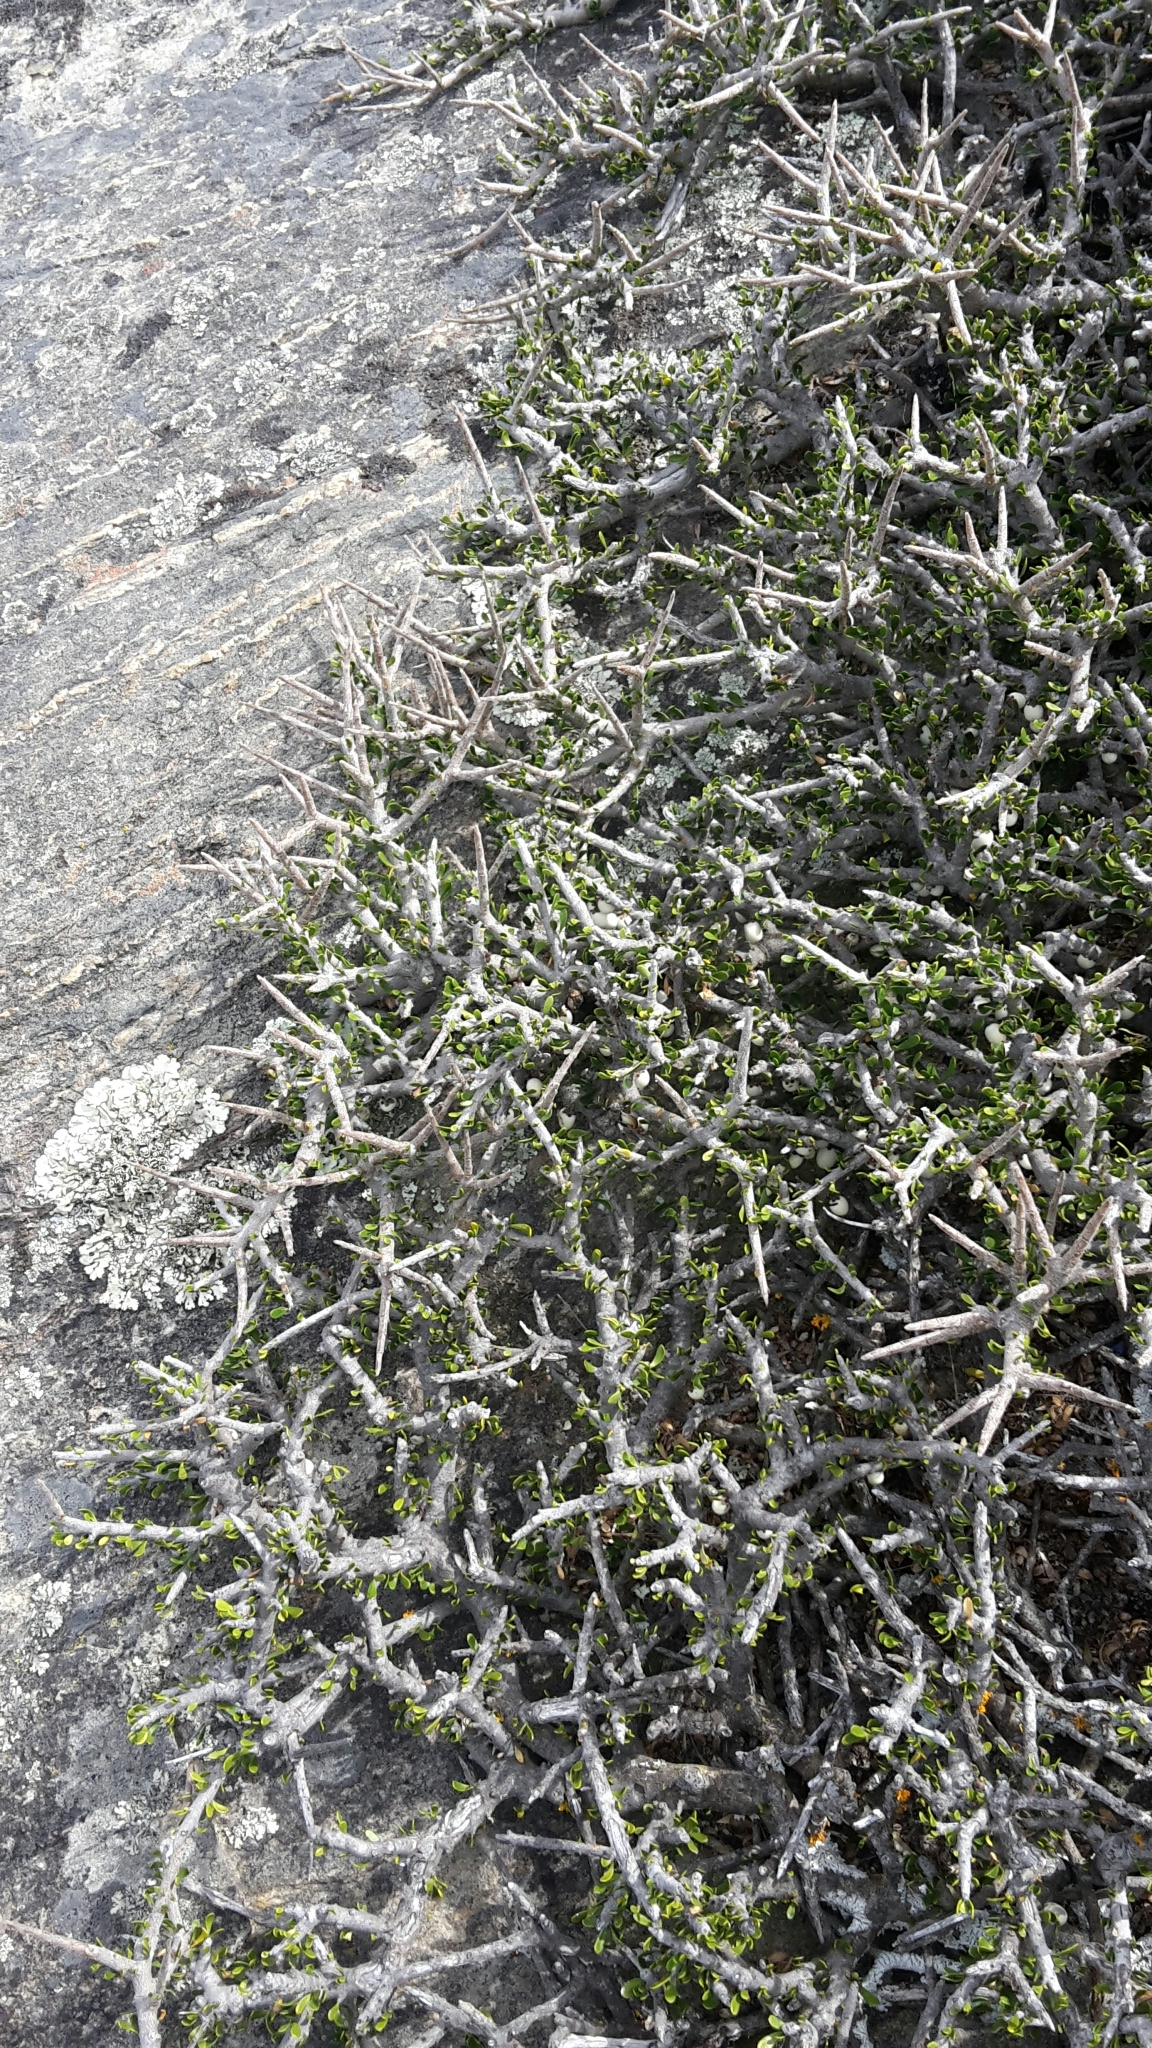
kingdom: Plantae
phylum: Tracheophyta
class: Magnoliopsida
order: Malpighiales
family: Violaceae
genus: Melicytus
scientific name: Melicytus alpinus
